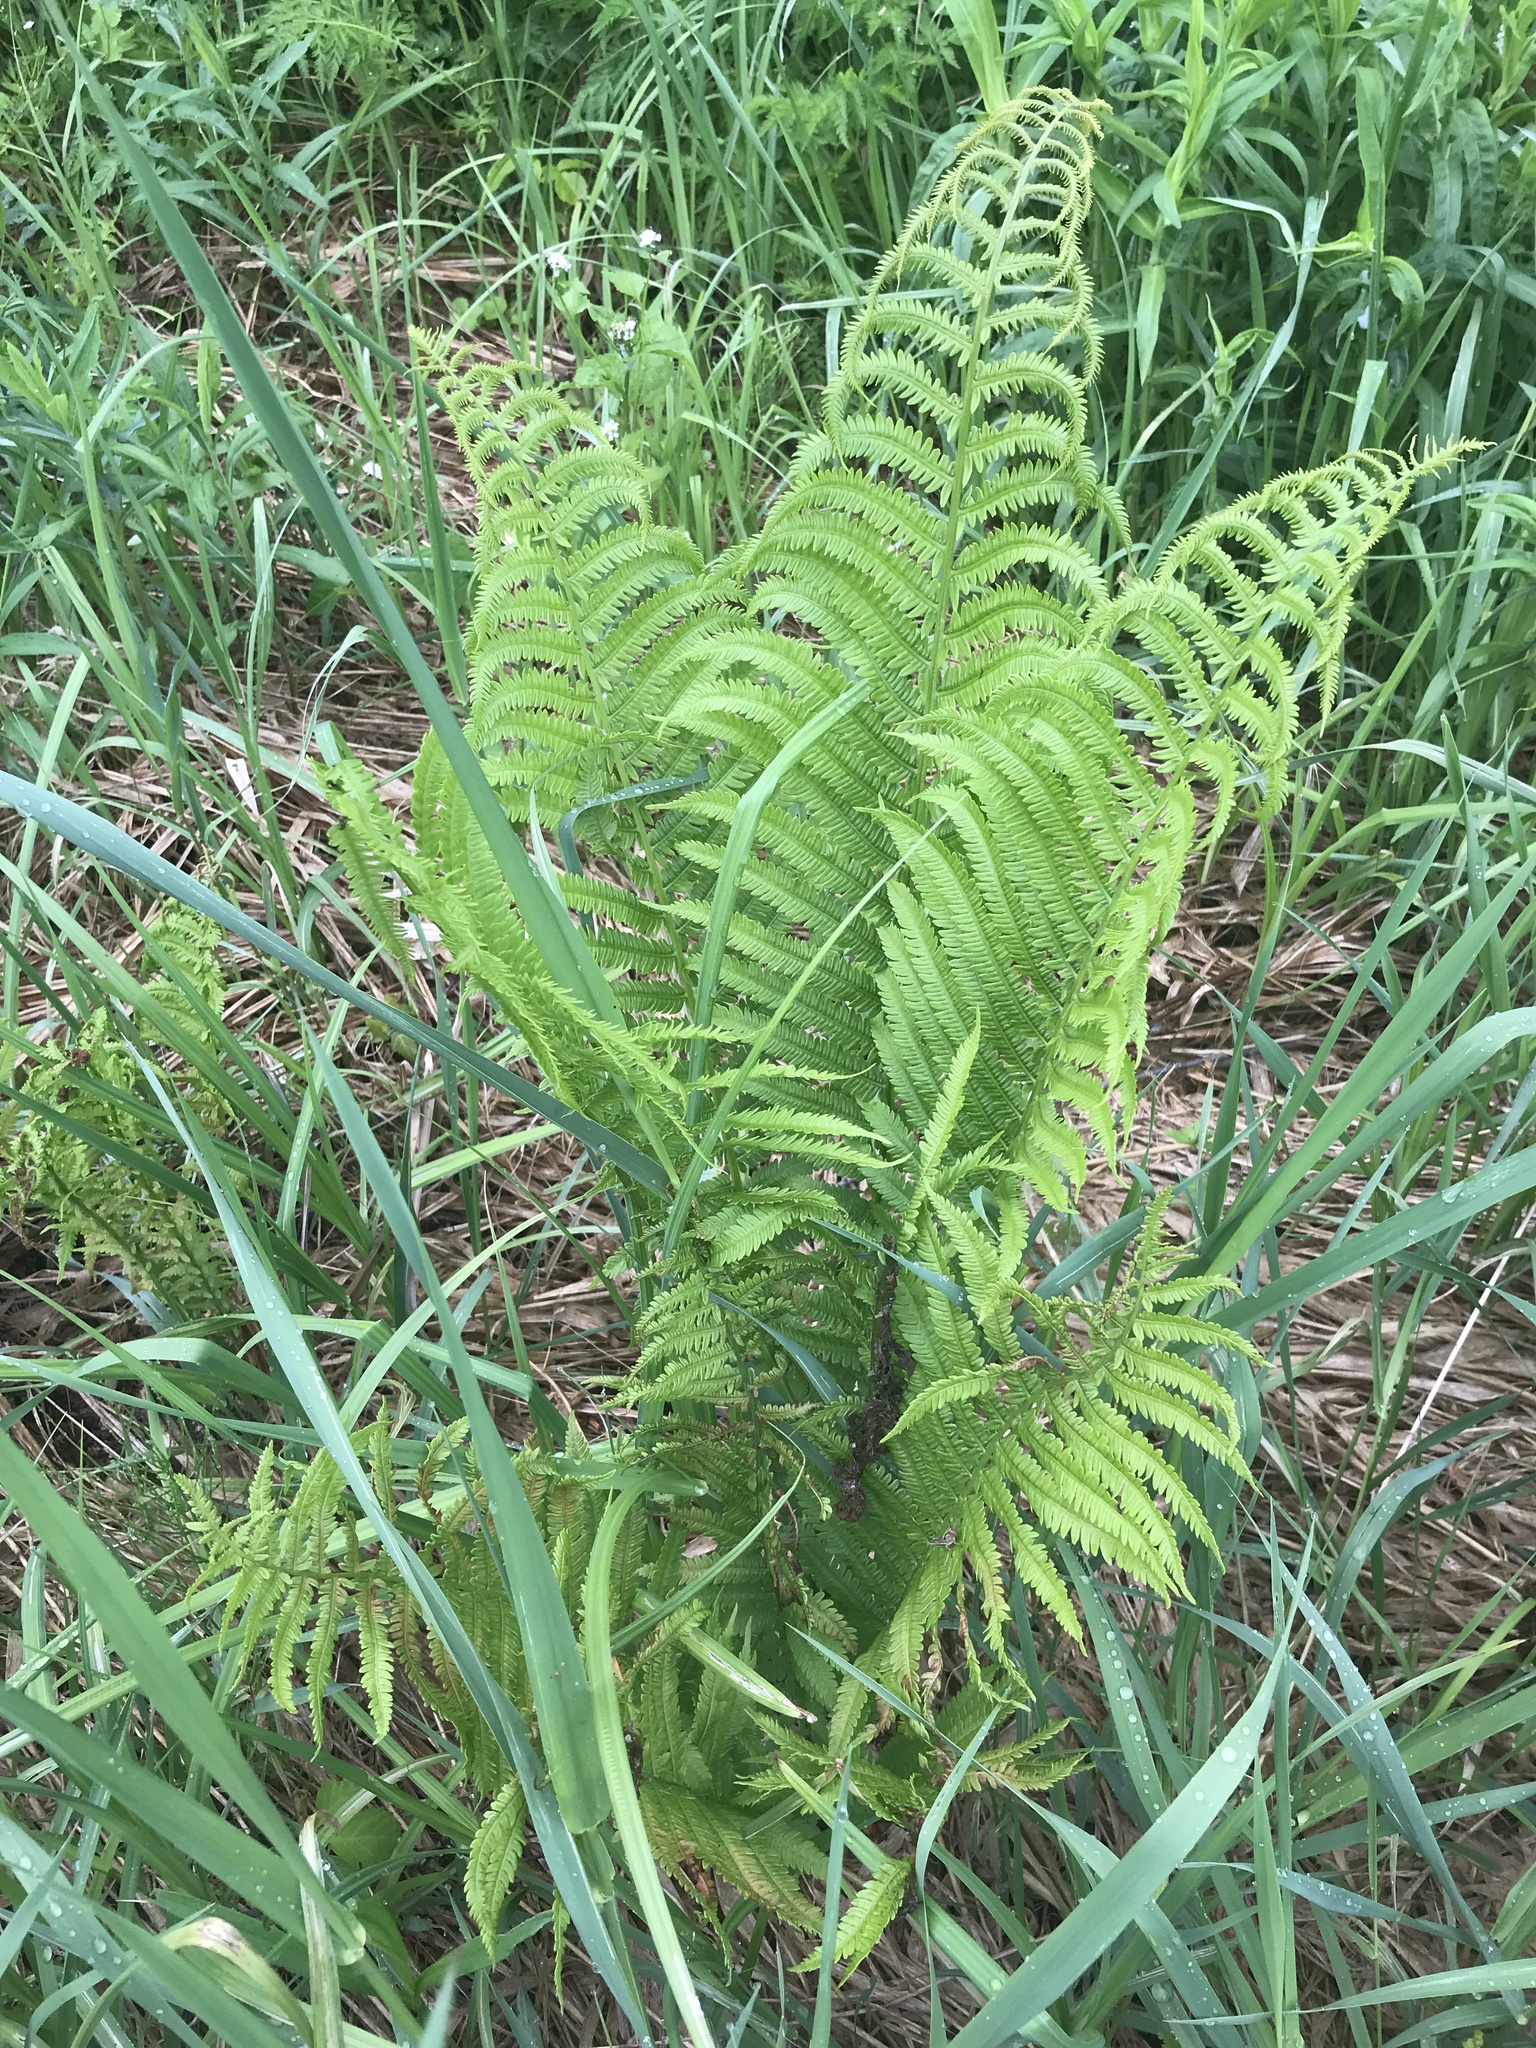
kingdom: Plantae
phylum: Tracheophyta
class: Polypodiopsida
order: Polypodiales
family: Onocleaceae
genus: Matteuccia
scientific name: Matteuccia struthiopteris
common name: Ostrich fern
